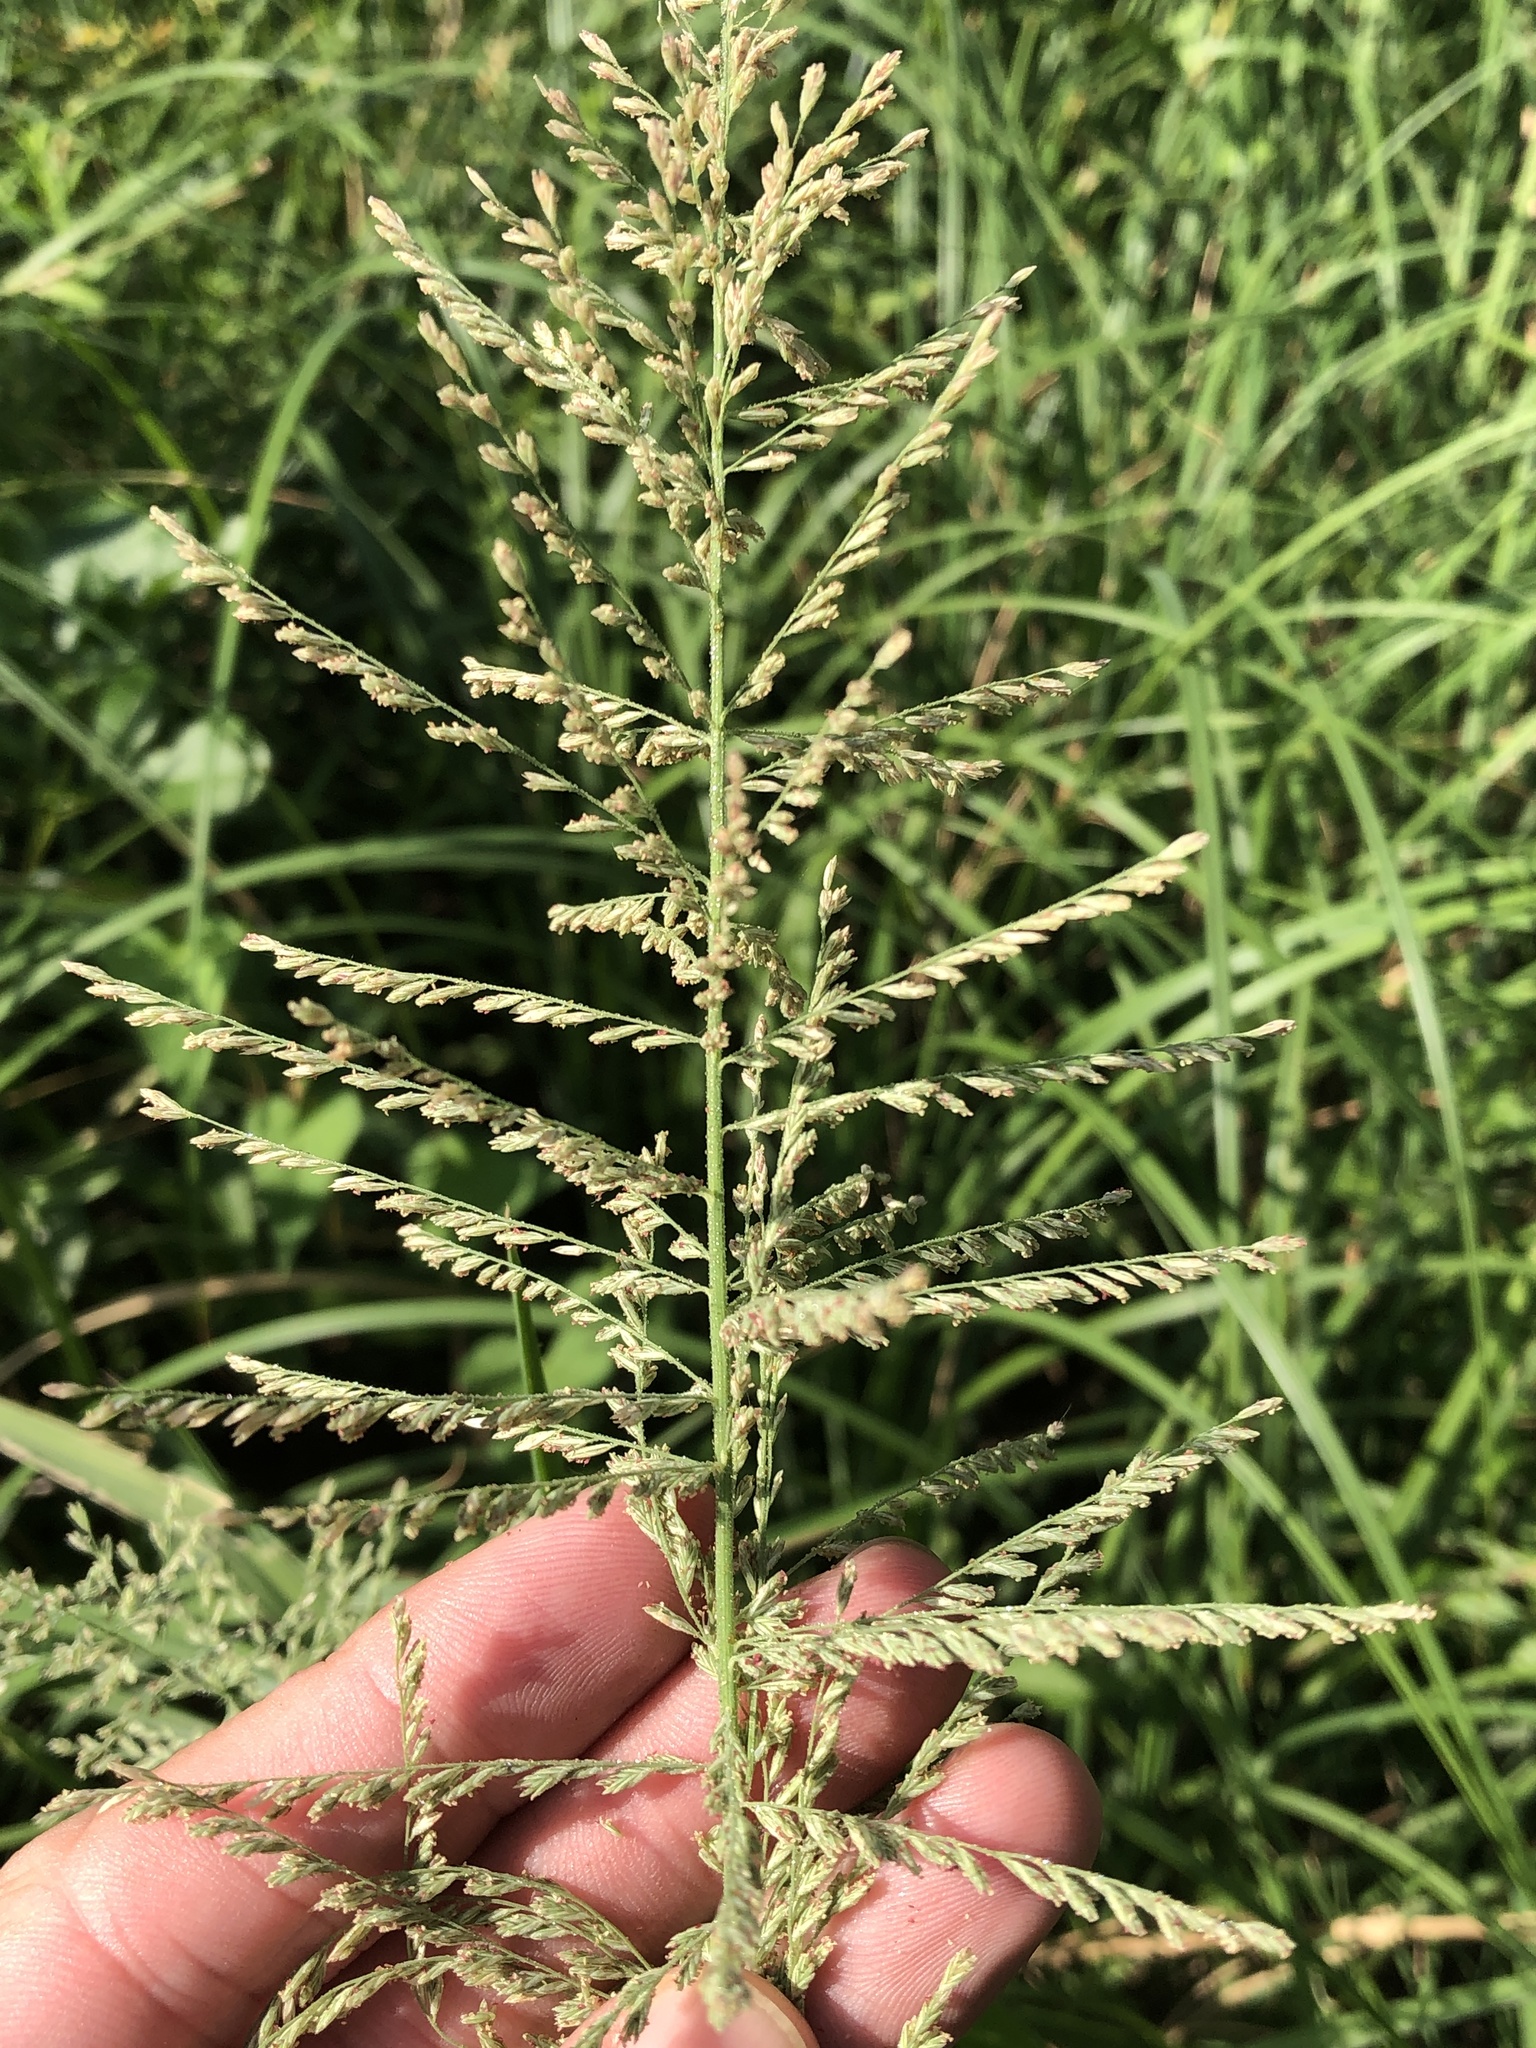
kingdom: Plantae
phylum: Tracheophyta
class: Liliopsida
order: Poales
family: Poaceae
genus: Leptochloa
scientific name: Leptochloa panicoides
